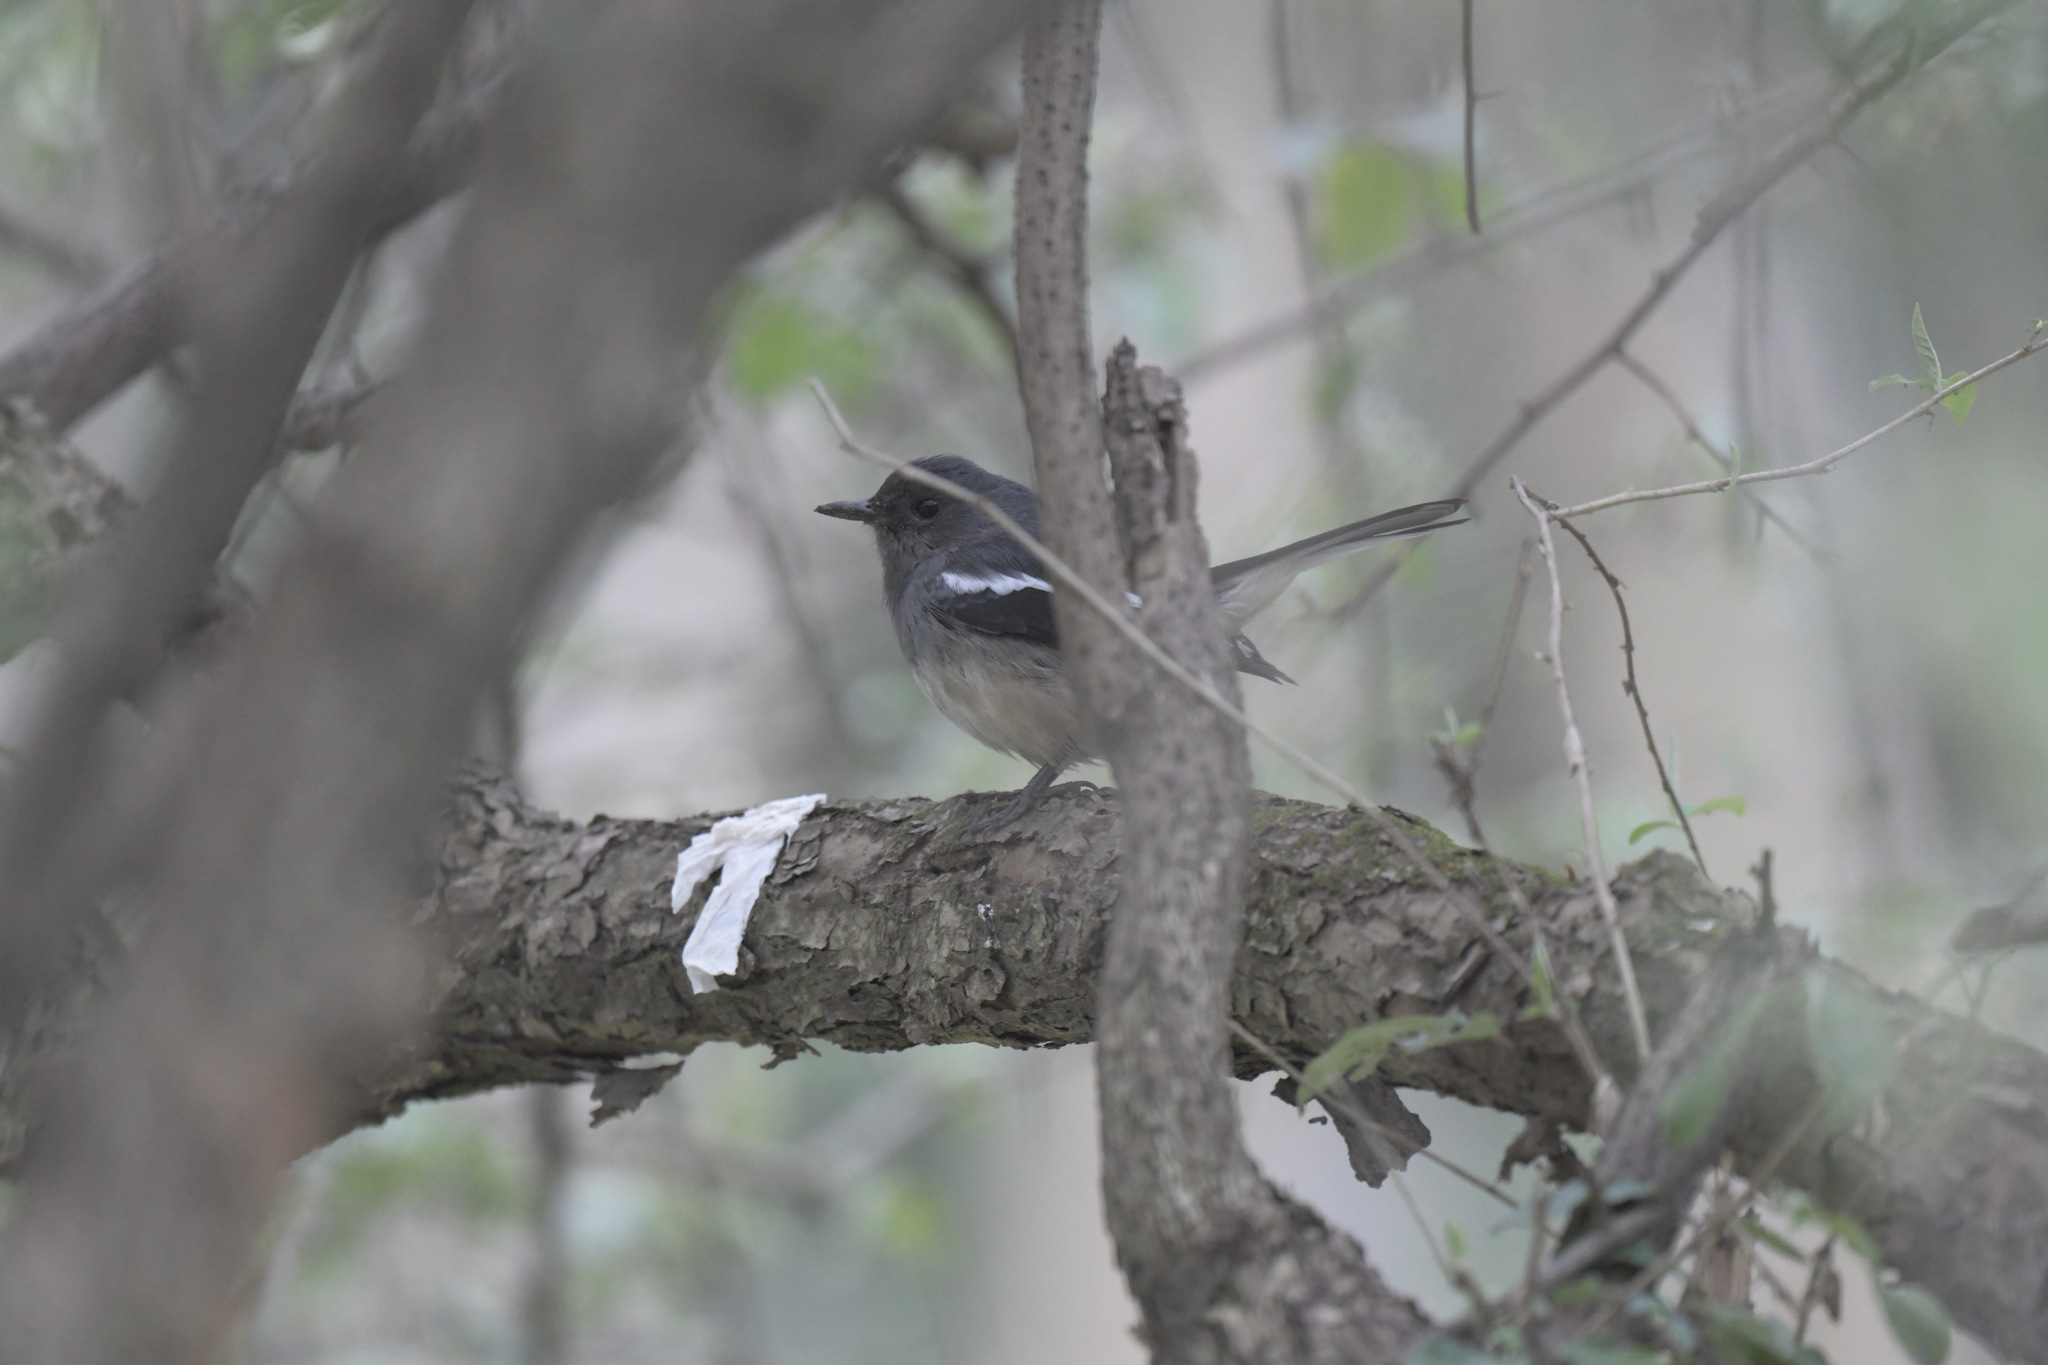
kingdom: Animalia
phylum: Chordata
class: Aves
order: Passeriformes
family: Muscicapidae
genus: Copsychus
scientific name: Copsychus saularis
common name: Oriental magpie-robin
